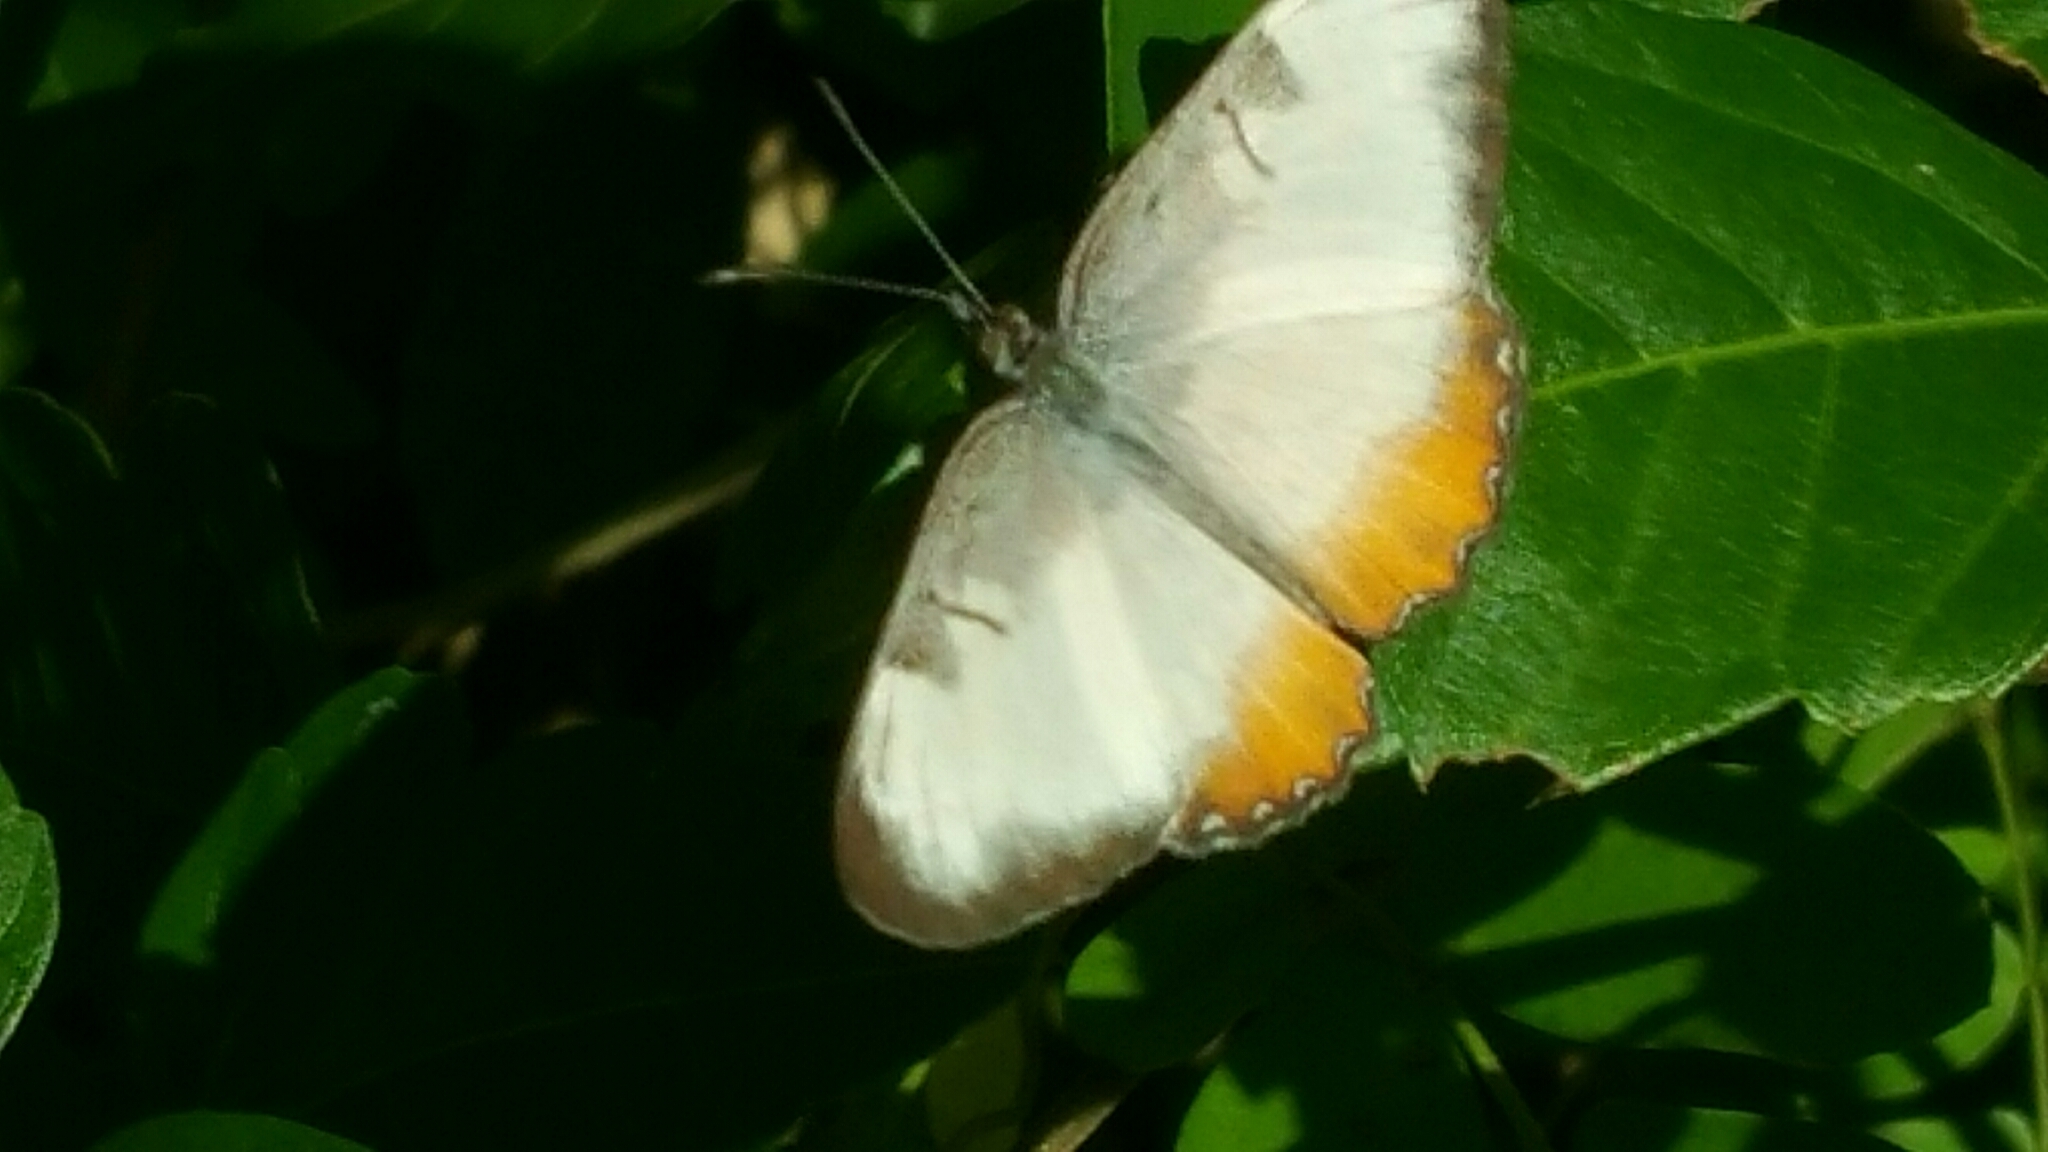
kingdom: Animalia
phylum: Arthropoda
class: Insecta
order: Lepidoptera
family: Nymphalidae
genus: Mestra
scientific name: Mestra amymone
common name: Common mestra
